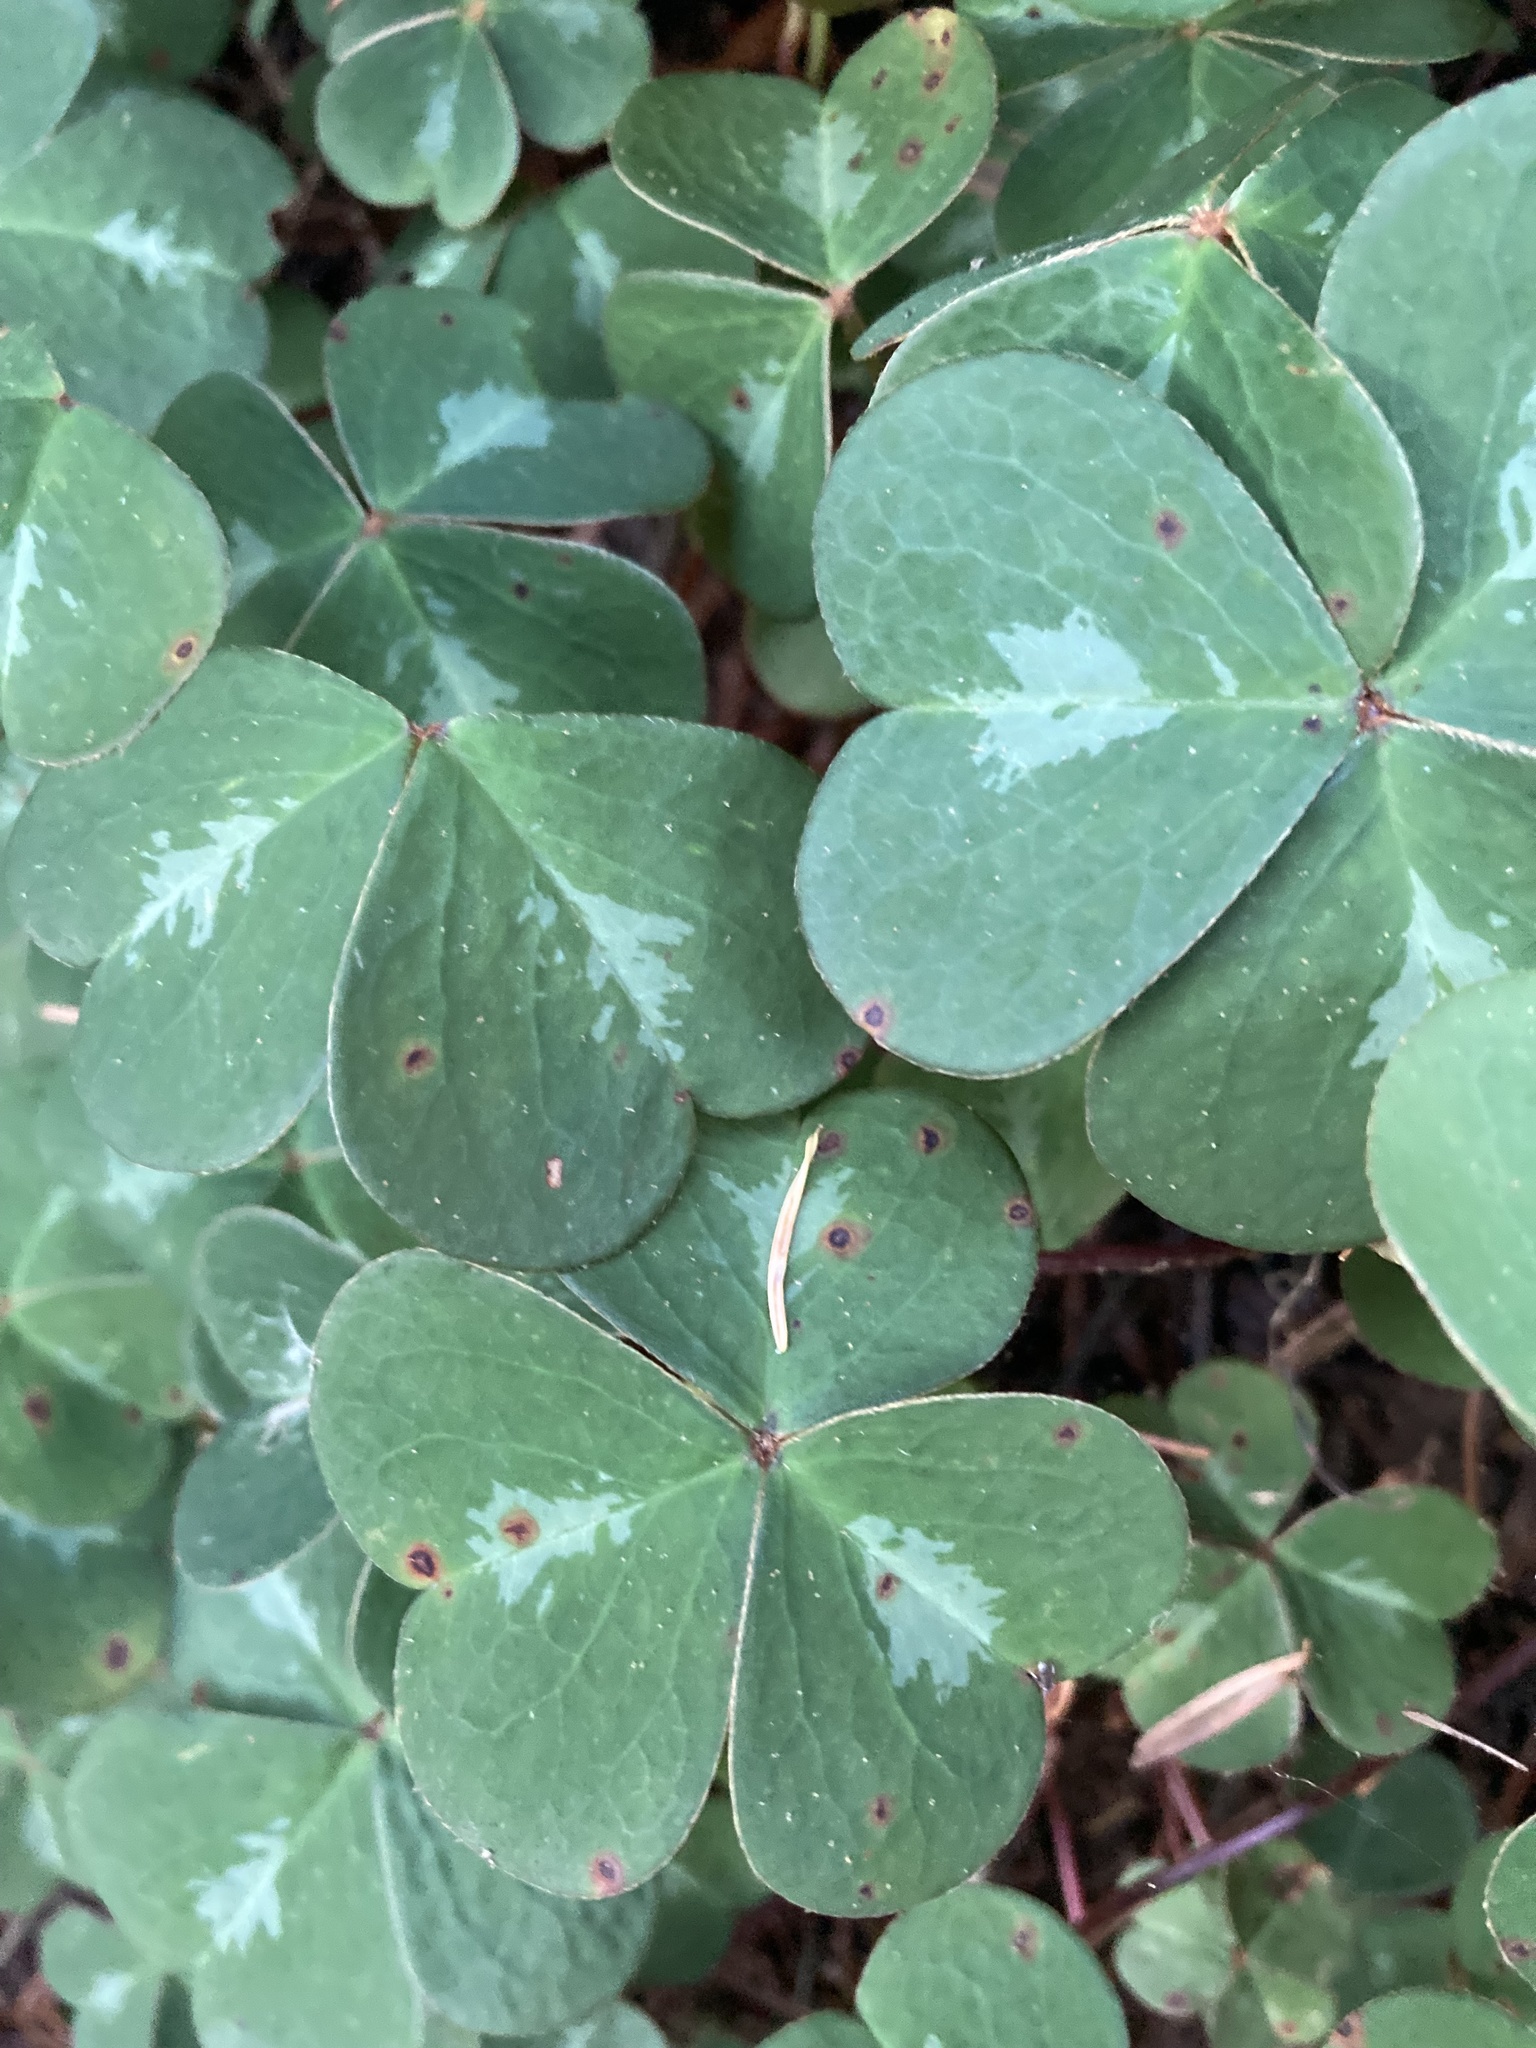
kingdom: Plantae
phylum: Tracheophyta
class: Magnoliopsida
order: Oxalidales
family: Oxalidaceae
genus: Oxalis
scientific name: Oxalis oregana
